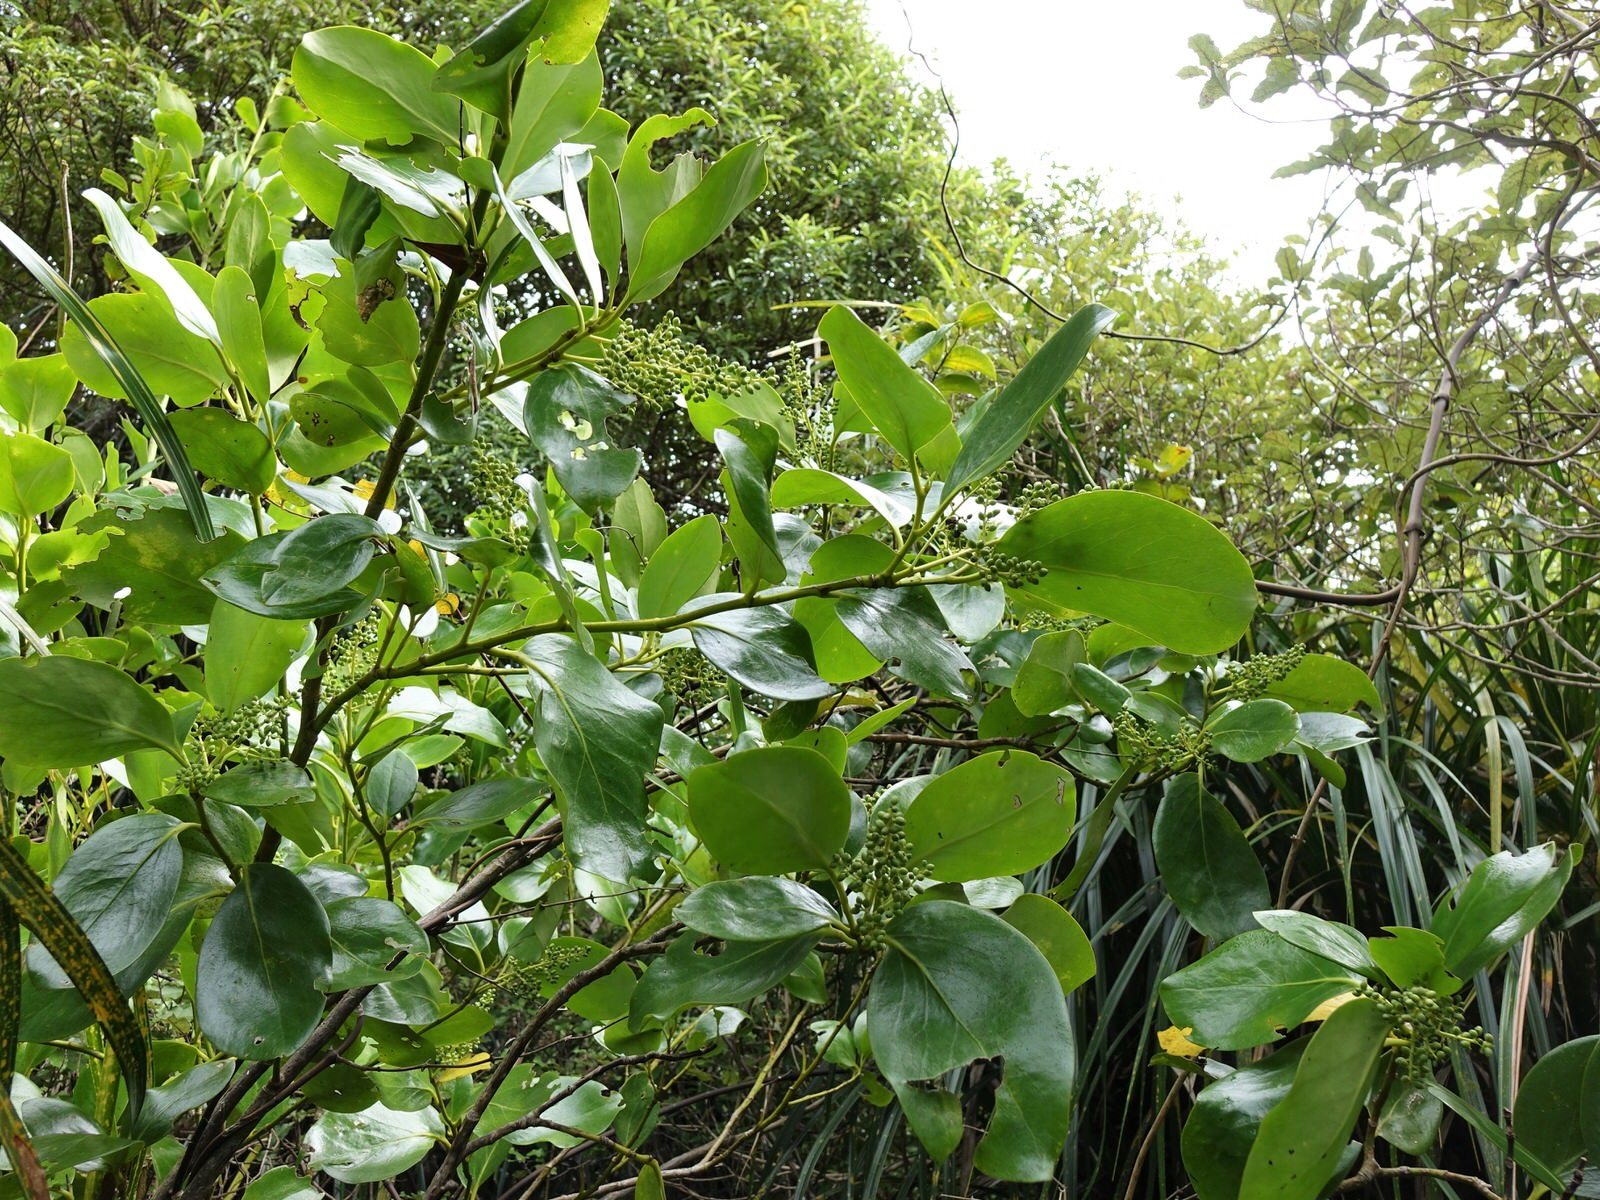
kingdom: Plantae
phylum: Tracheophyta
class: Magnoliopsida
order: Apiales
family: Griseliniaceae
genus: Griselinia
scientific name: Griselinia lucida
